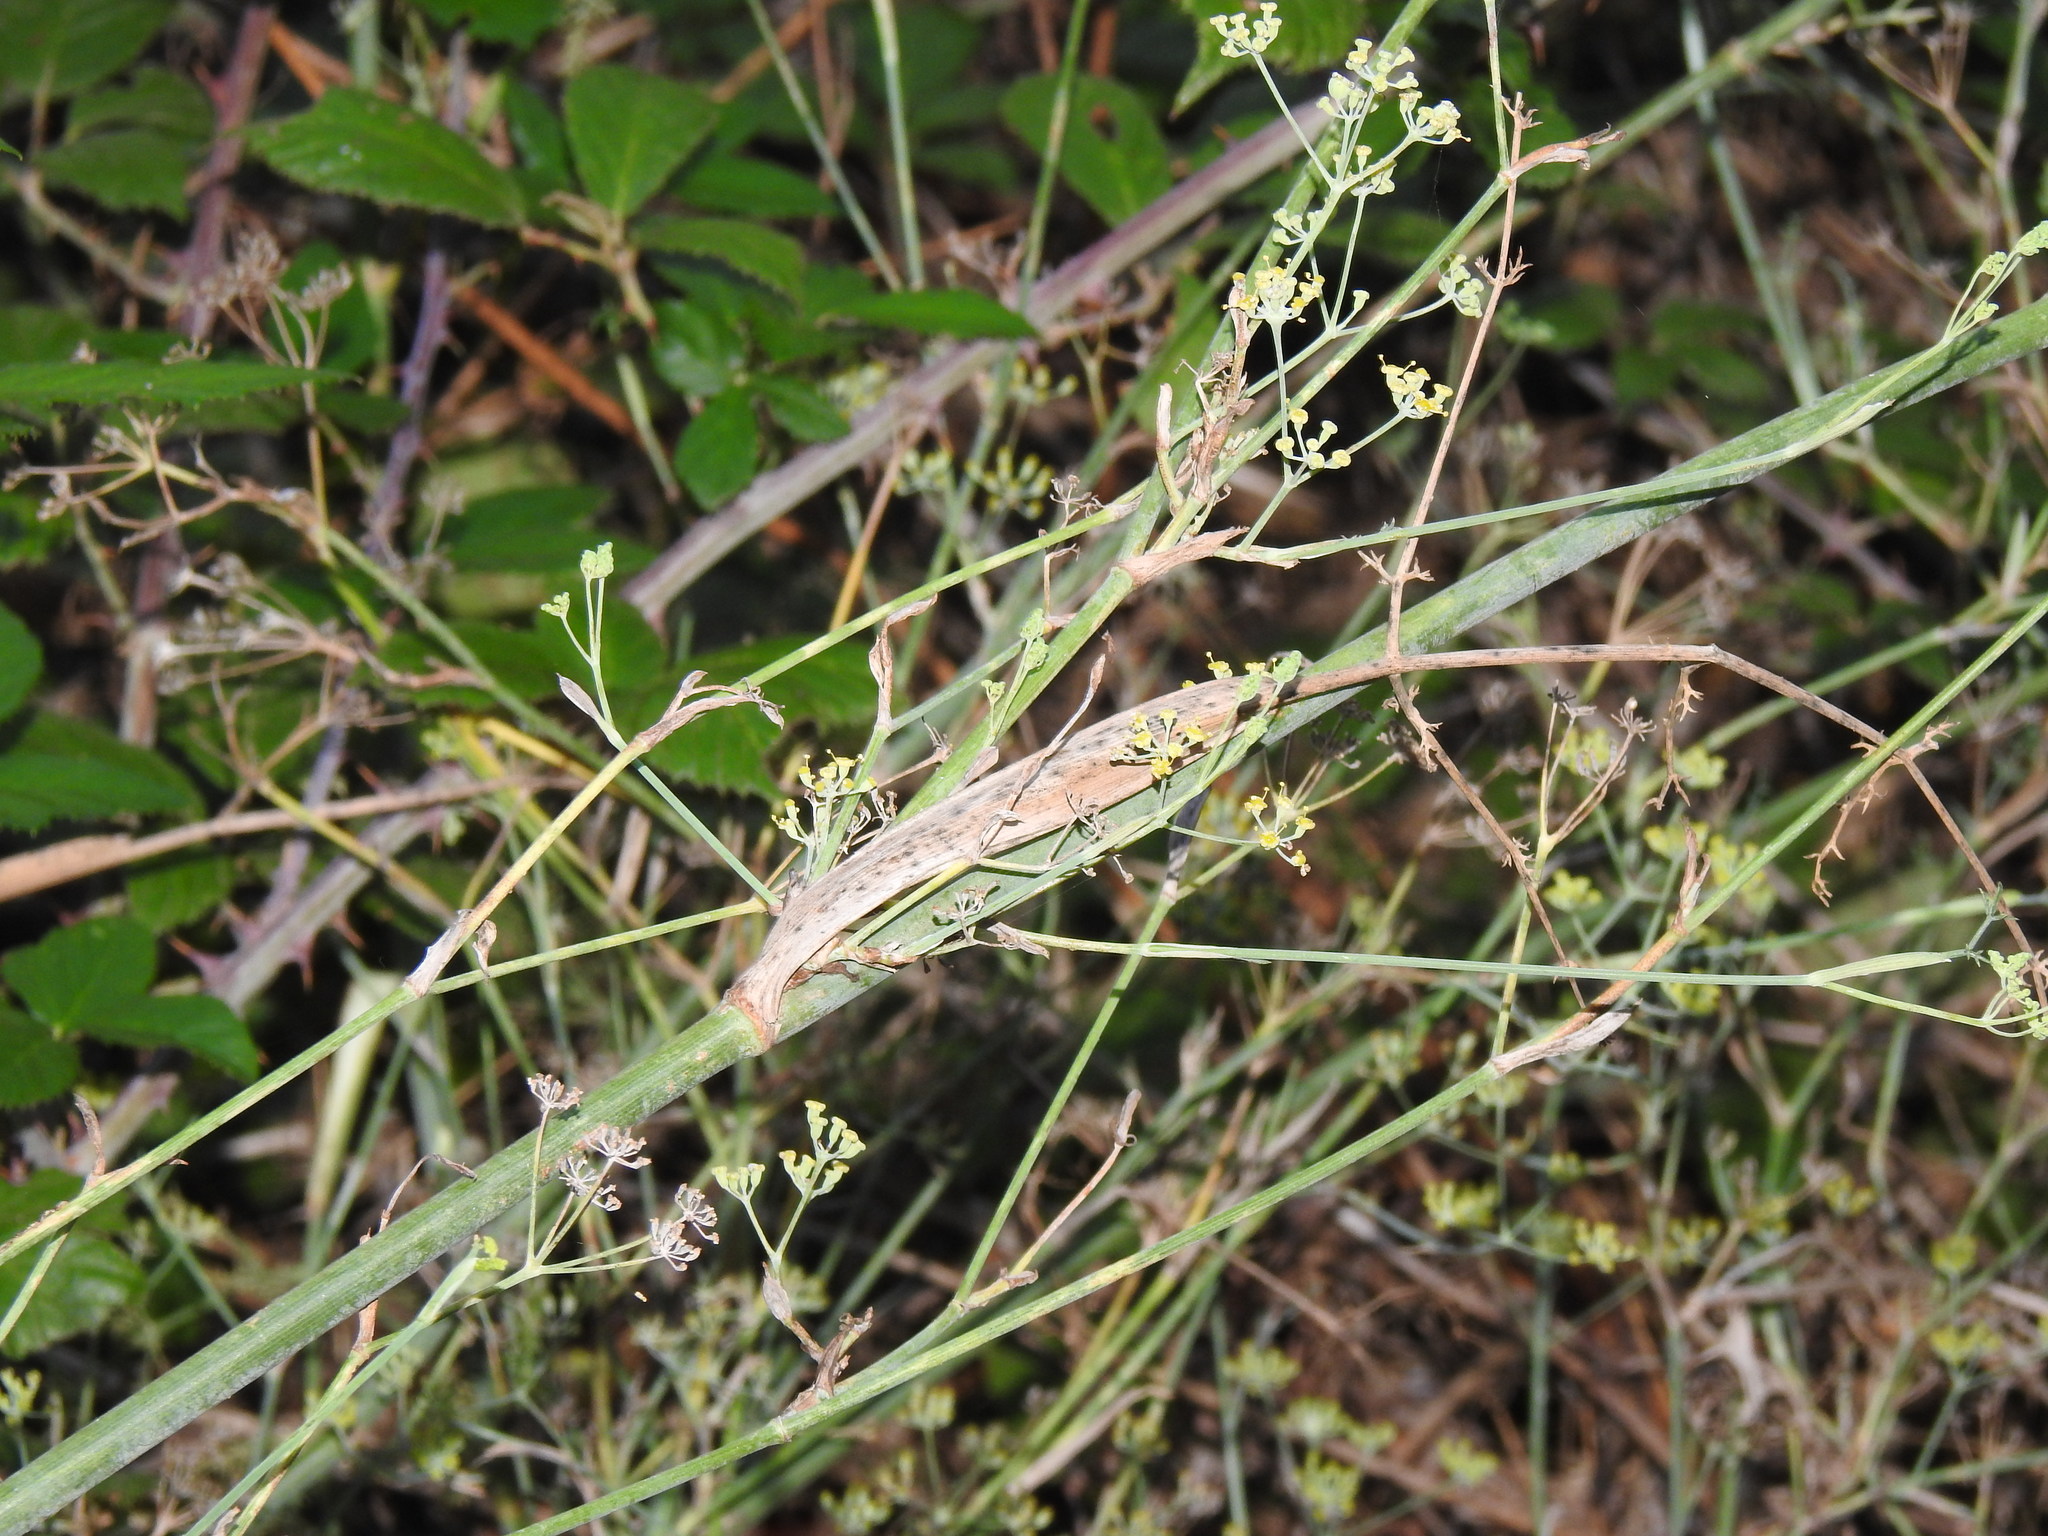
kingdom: Plantae
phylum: Tracheophyta
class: Magnoliopsida
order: Apiales
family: Apiaceae
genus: Foeniculum
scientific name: Foeniculum vulgare
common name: Fennel
